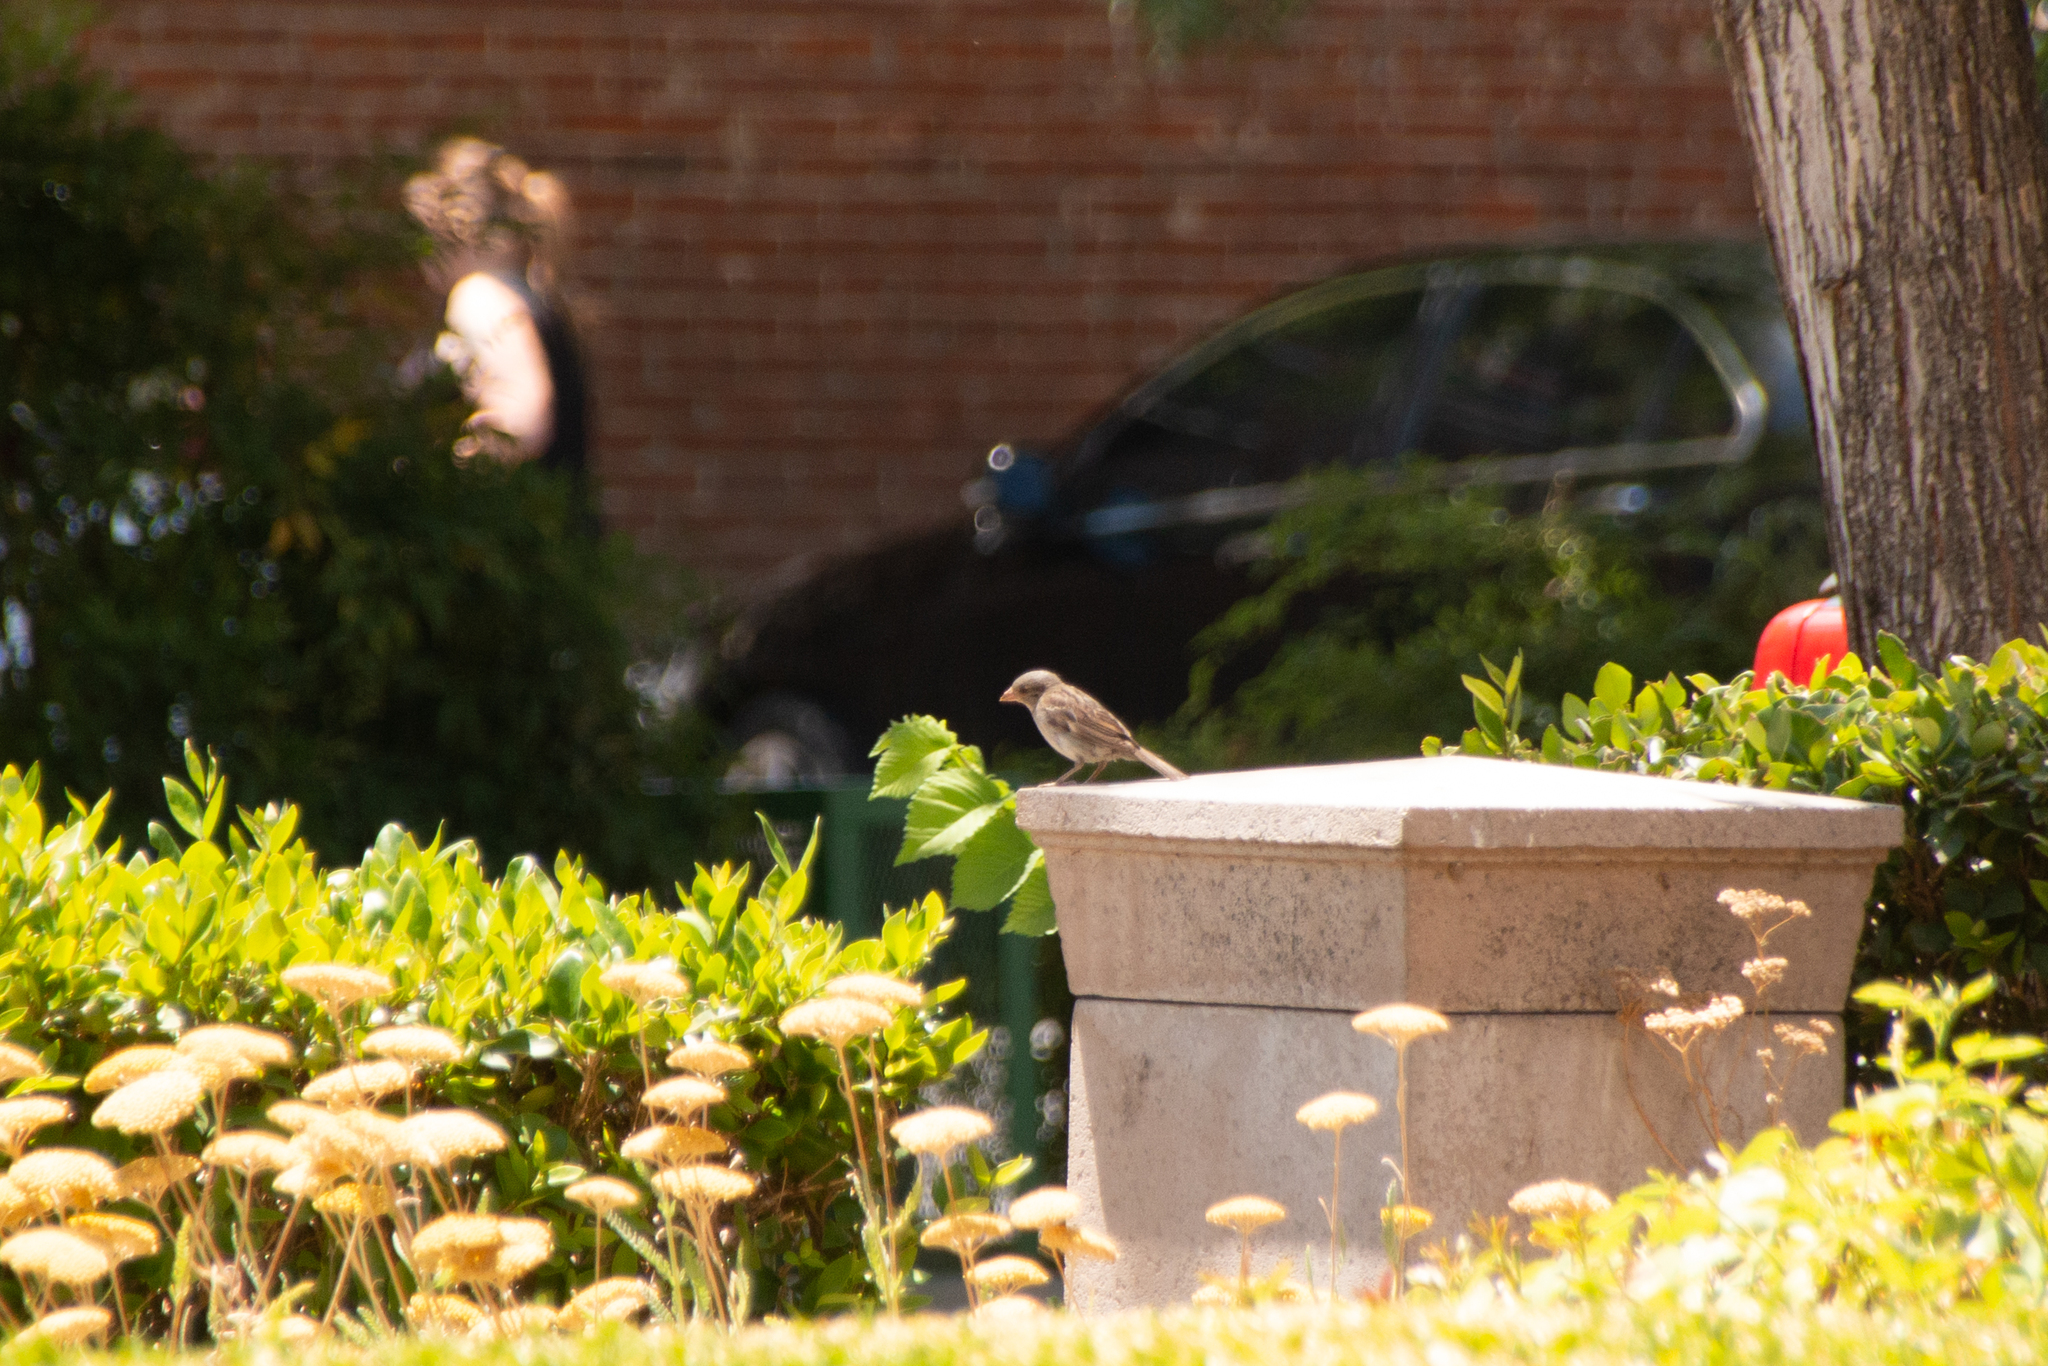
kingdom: Animalia
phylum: Chordata
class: Aves
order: Passeriformes
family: Passeridae
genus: Passer
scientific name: Passer domesticus
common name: House sparrow
